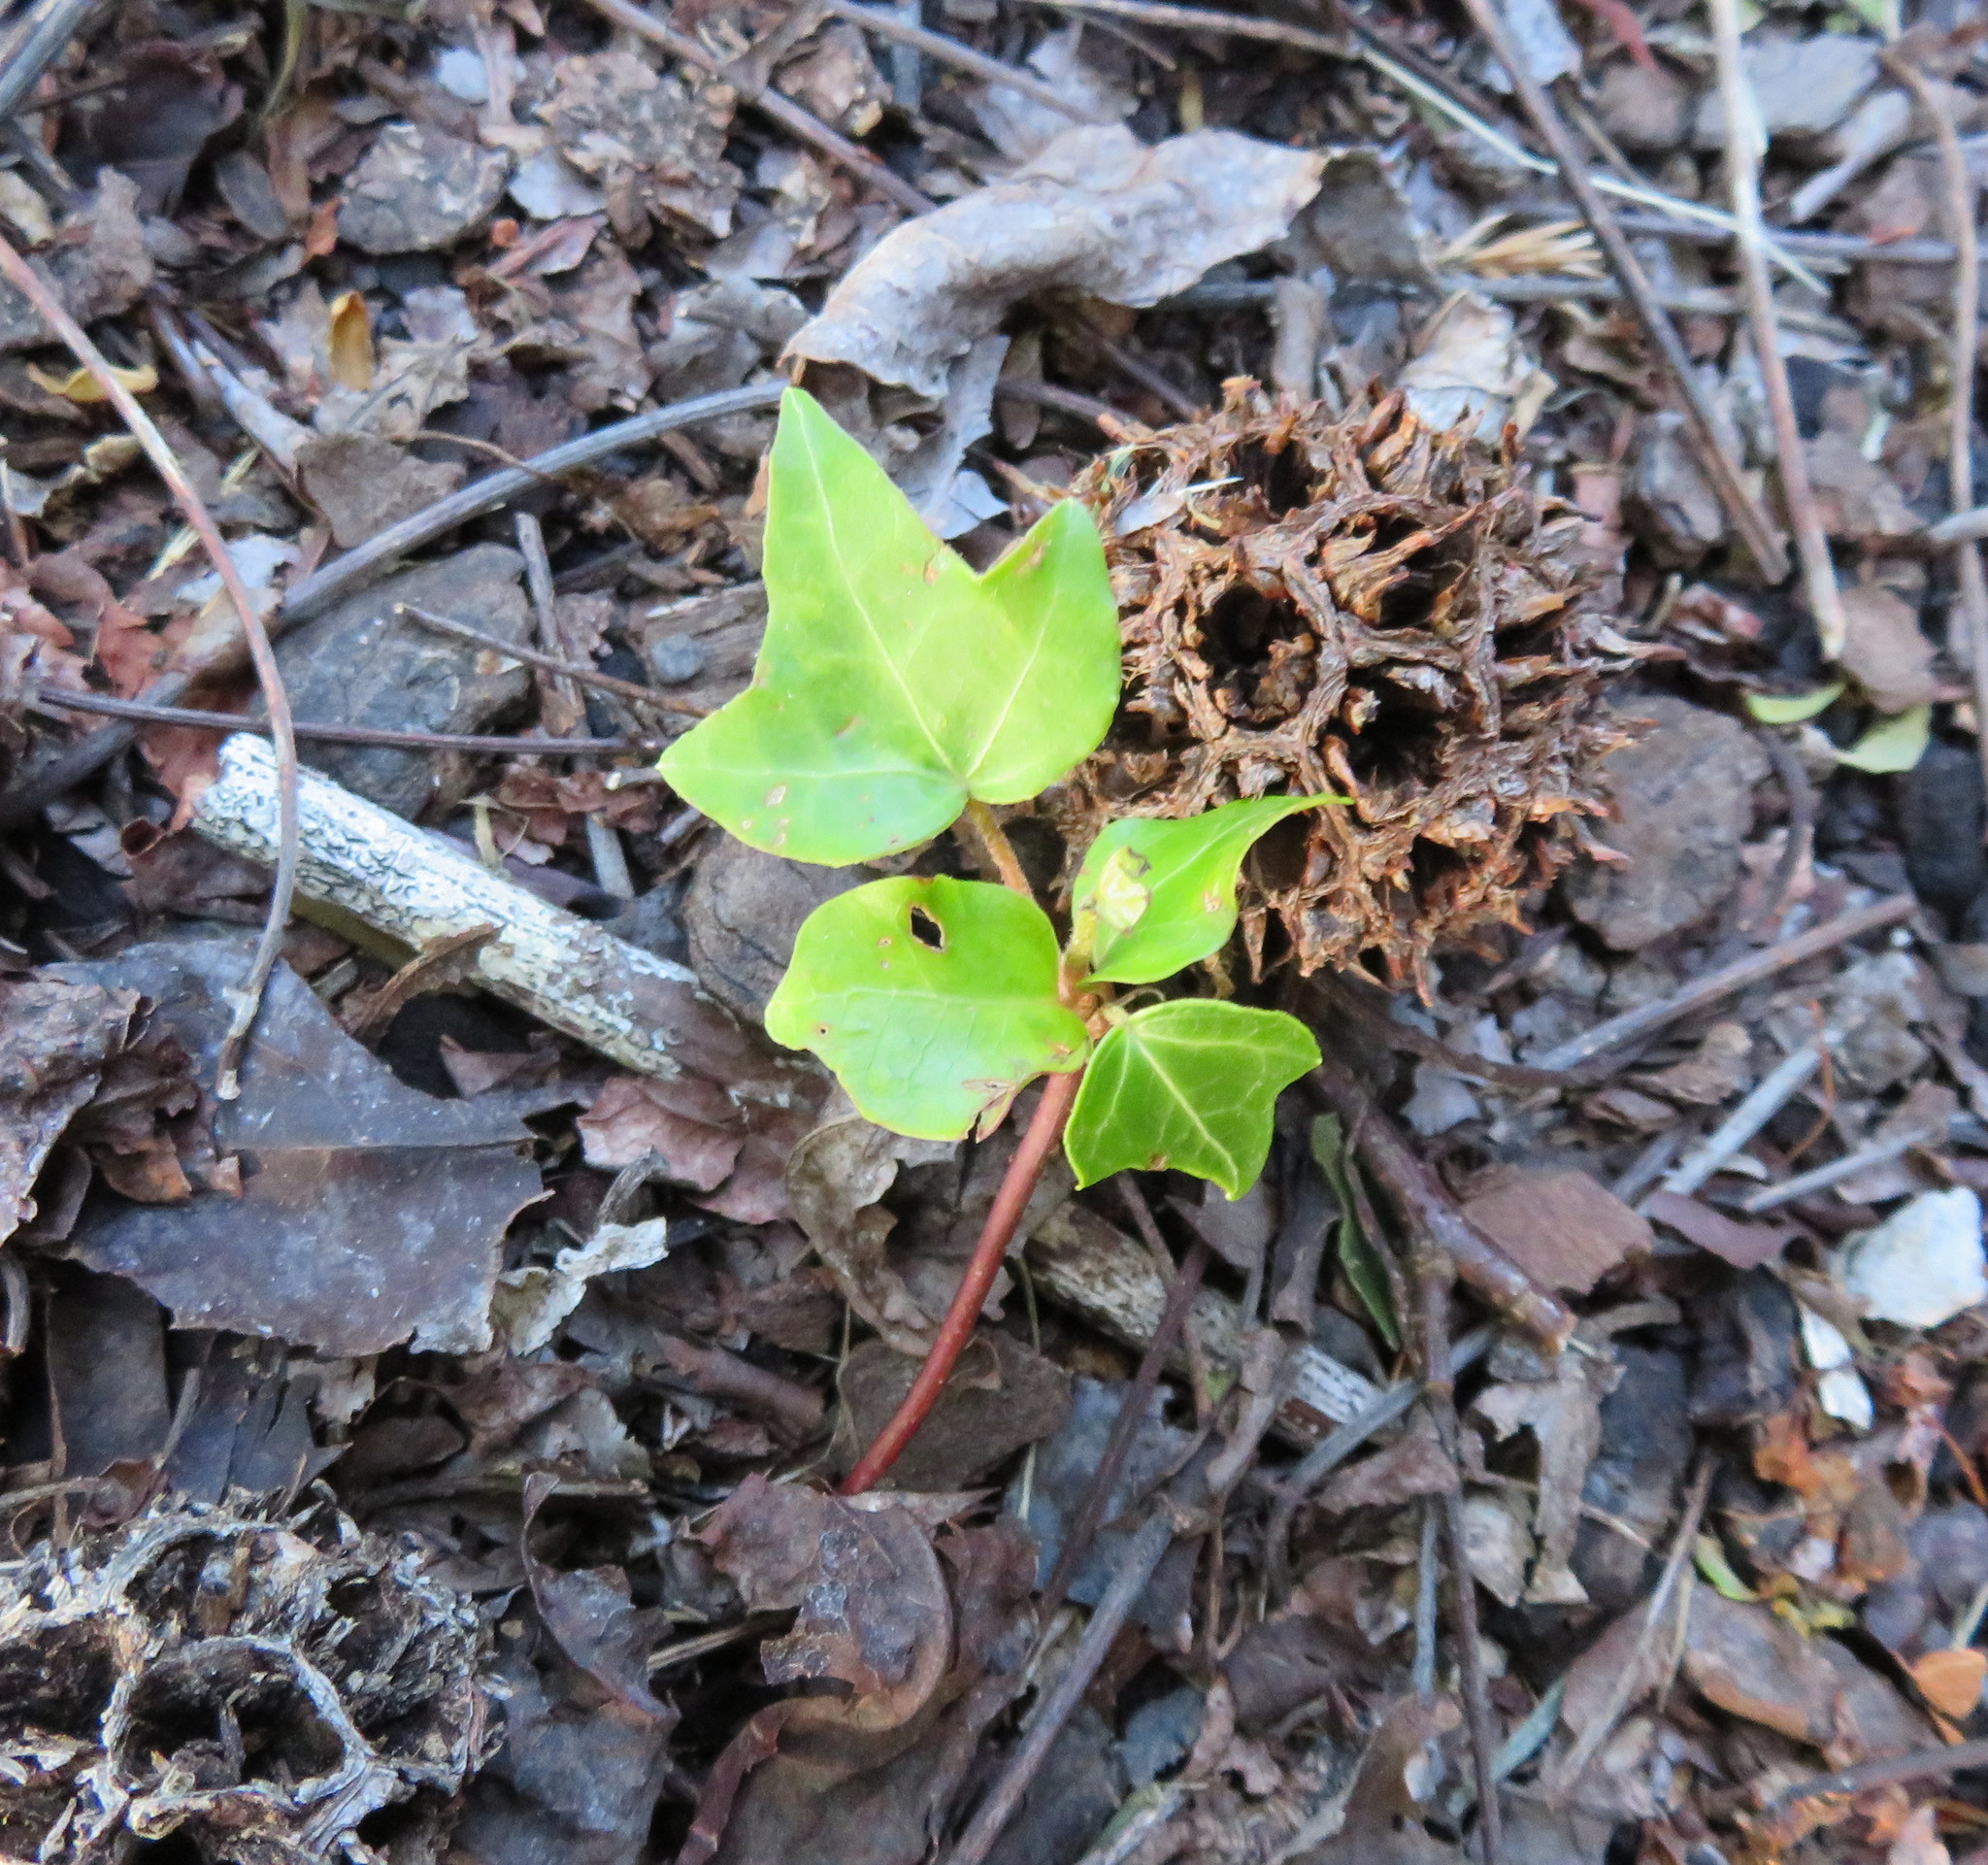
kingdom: Plantae
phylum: Tracheophyta
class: Magnoliopsida
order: Apiales
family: Araliaceae
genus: Hedera
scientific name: Hedera helix
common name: Ivy
